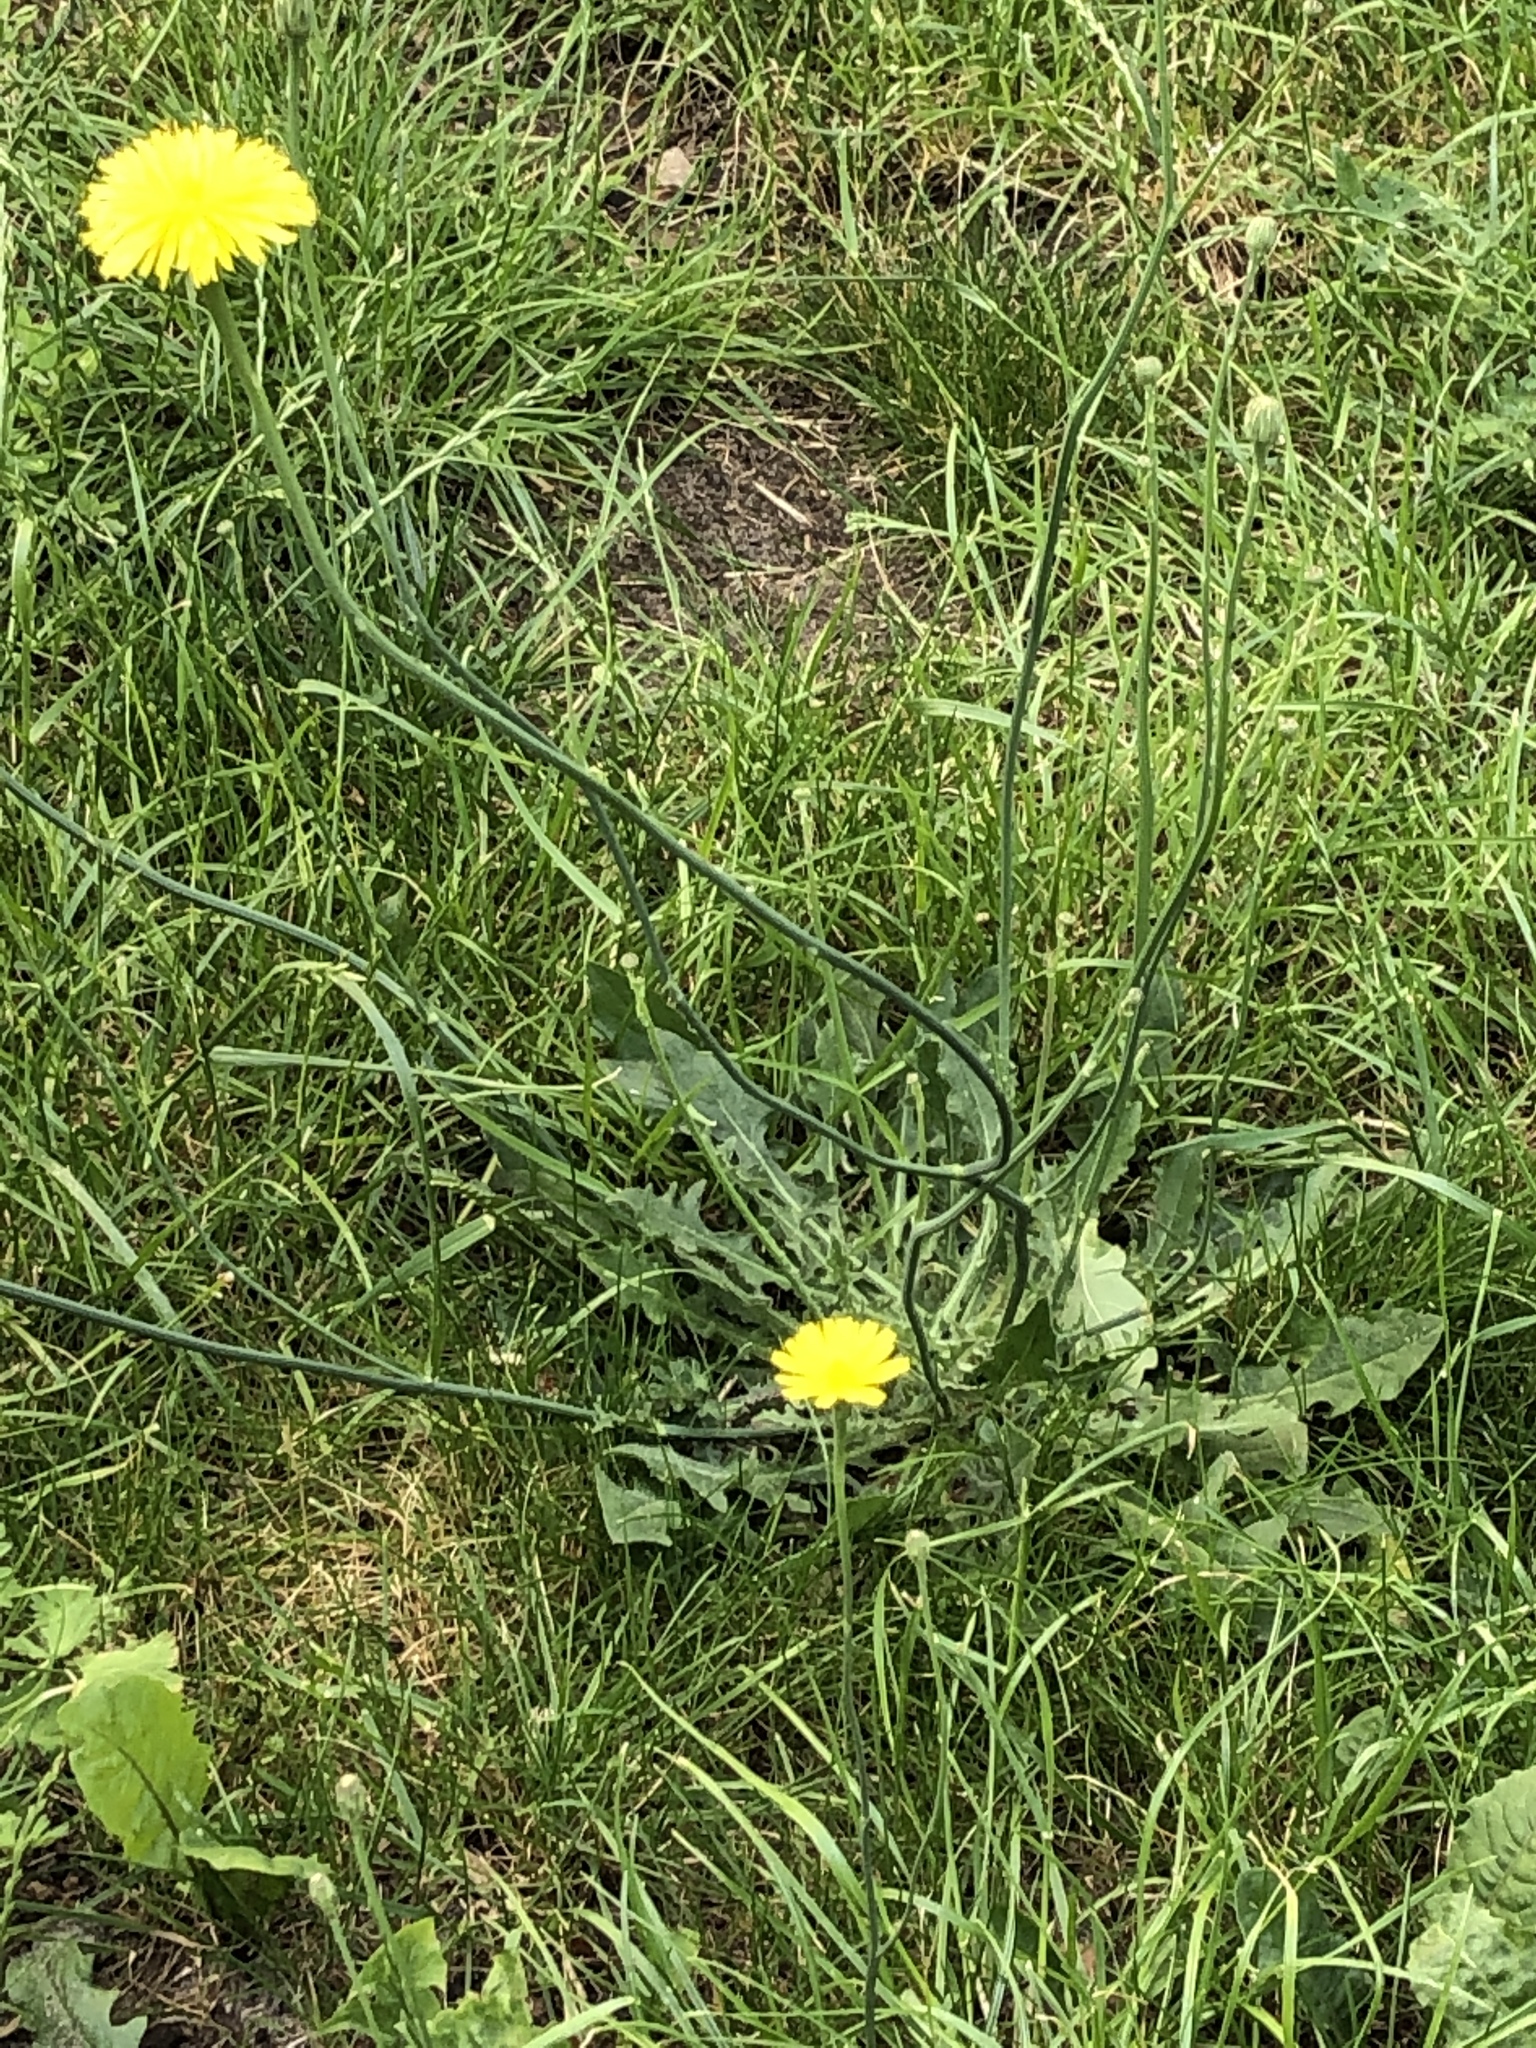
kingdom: Plantae
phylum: Tracheophyta
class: Magnoliopsida
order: Asterales
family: Asteraceae
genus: Hypochaeris
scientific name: Hypochaeris radicata
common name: Flatweed
